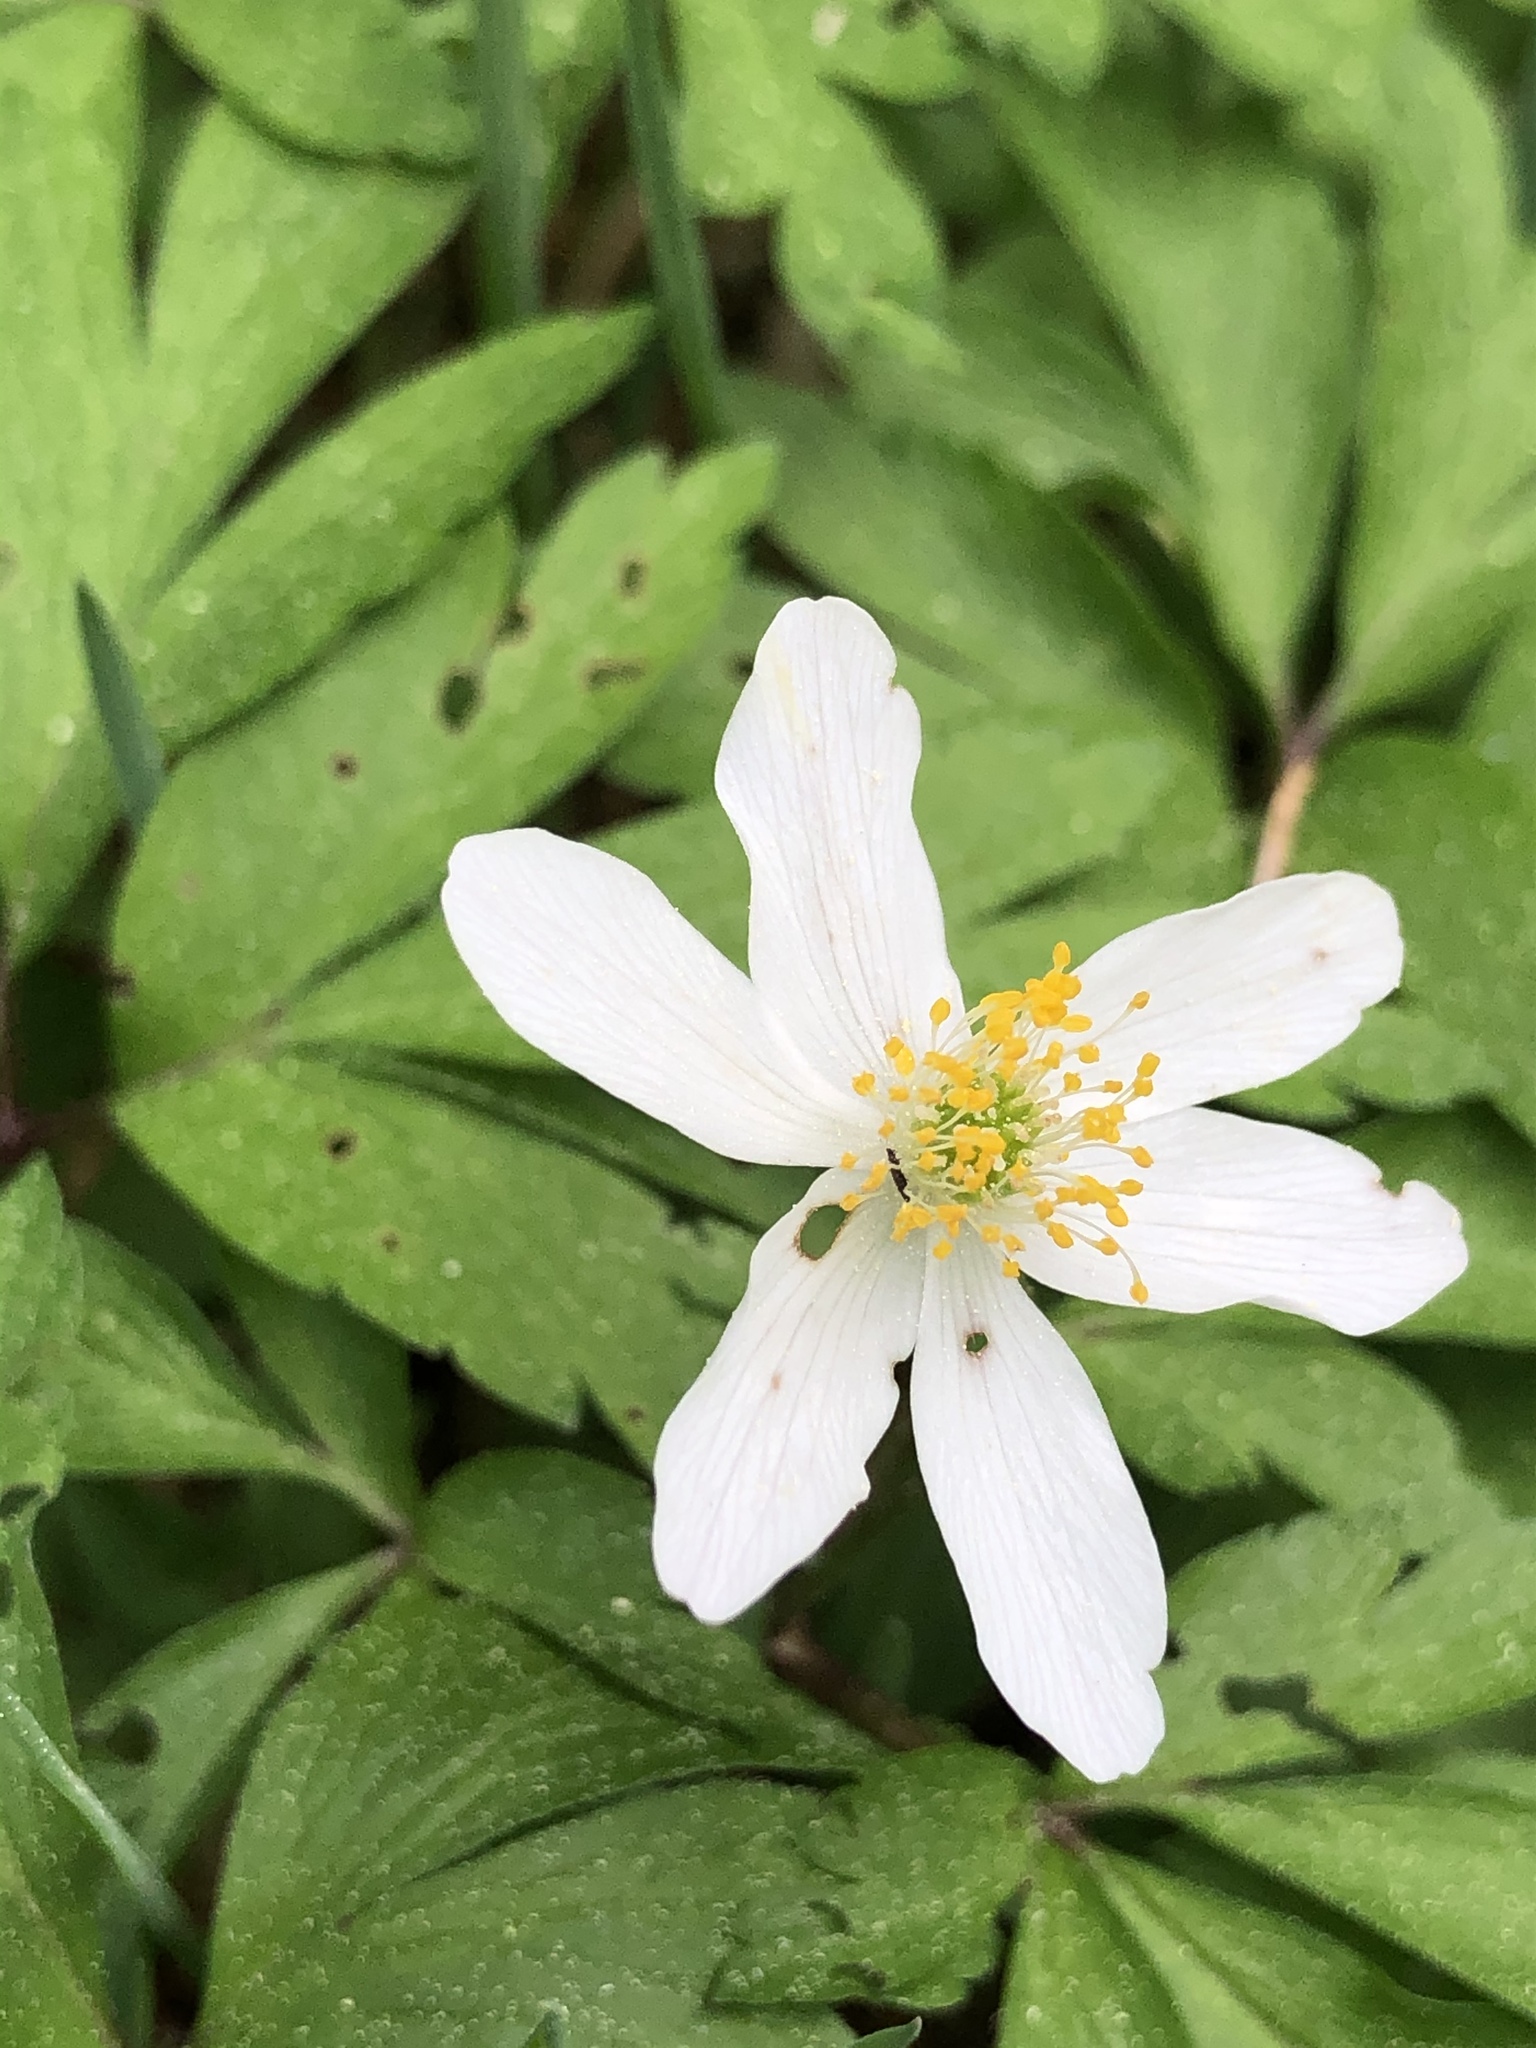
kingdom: Plantae
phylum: Tracheophyta
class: Magnoliopsida
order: Ranunculales
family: Ranunculaceae
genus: Anemone
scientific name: Anemone nemorosa
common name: Wood anemone
